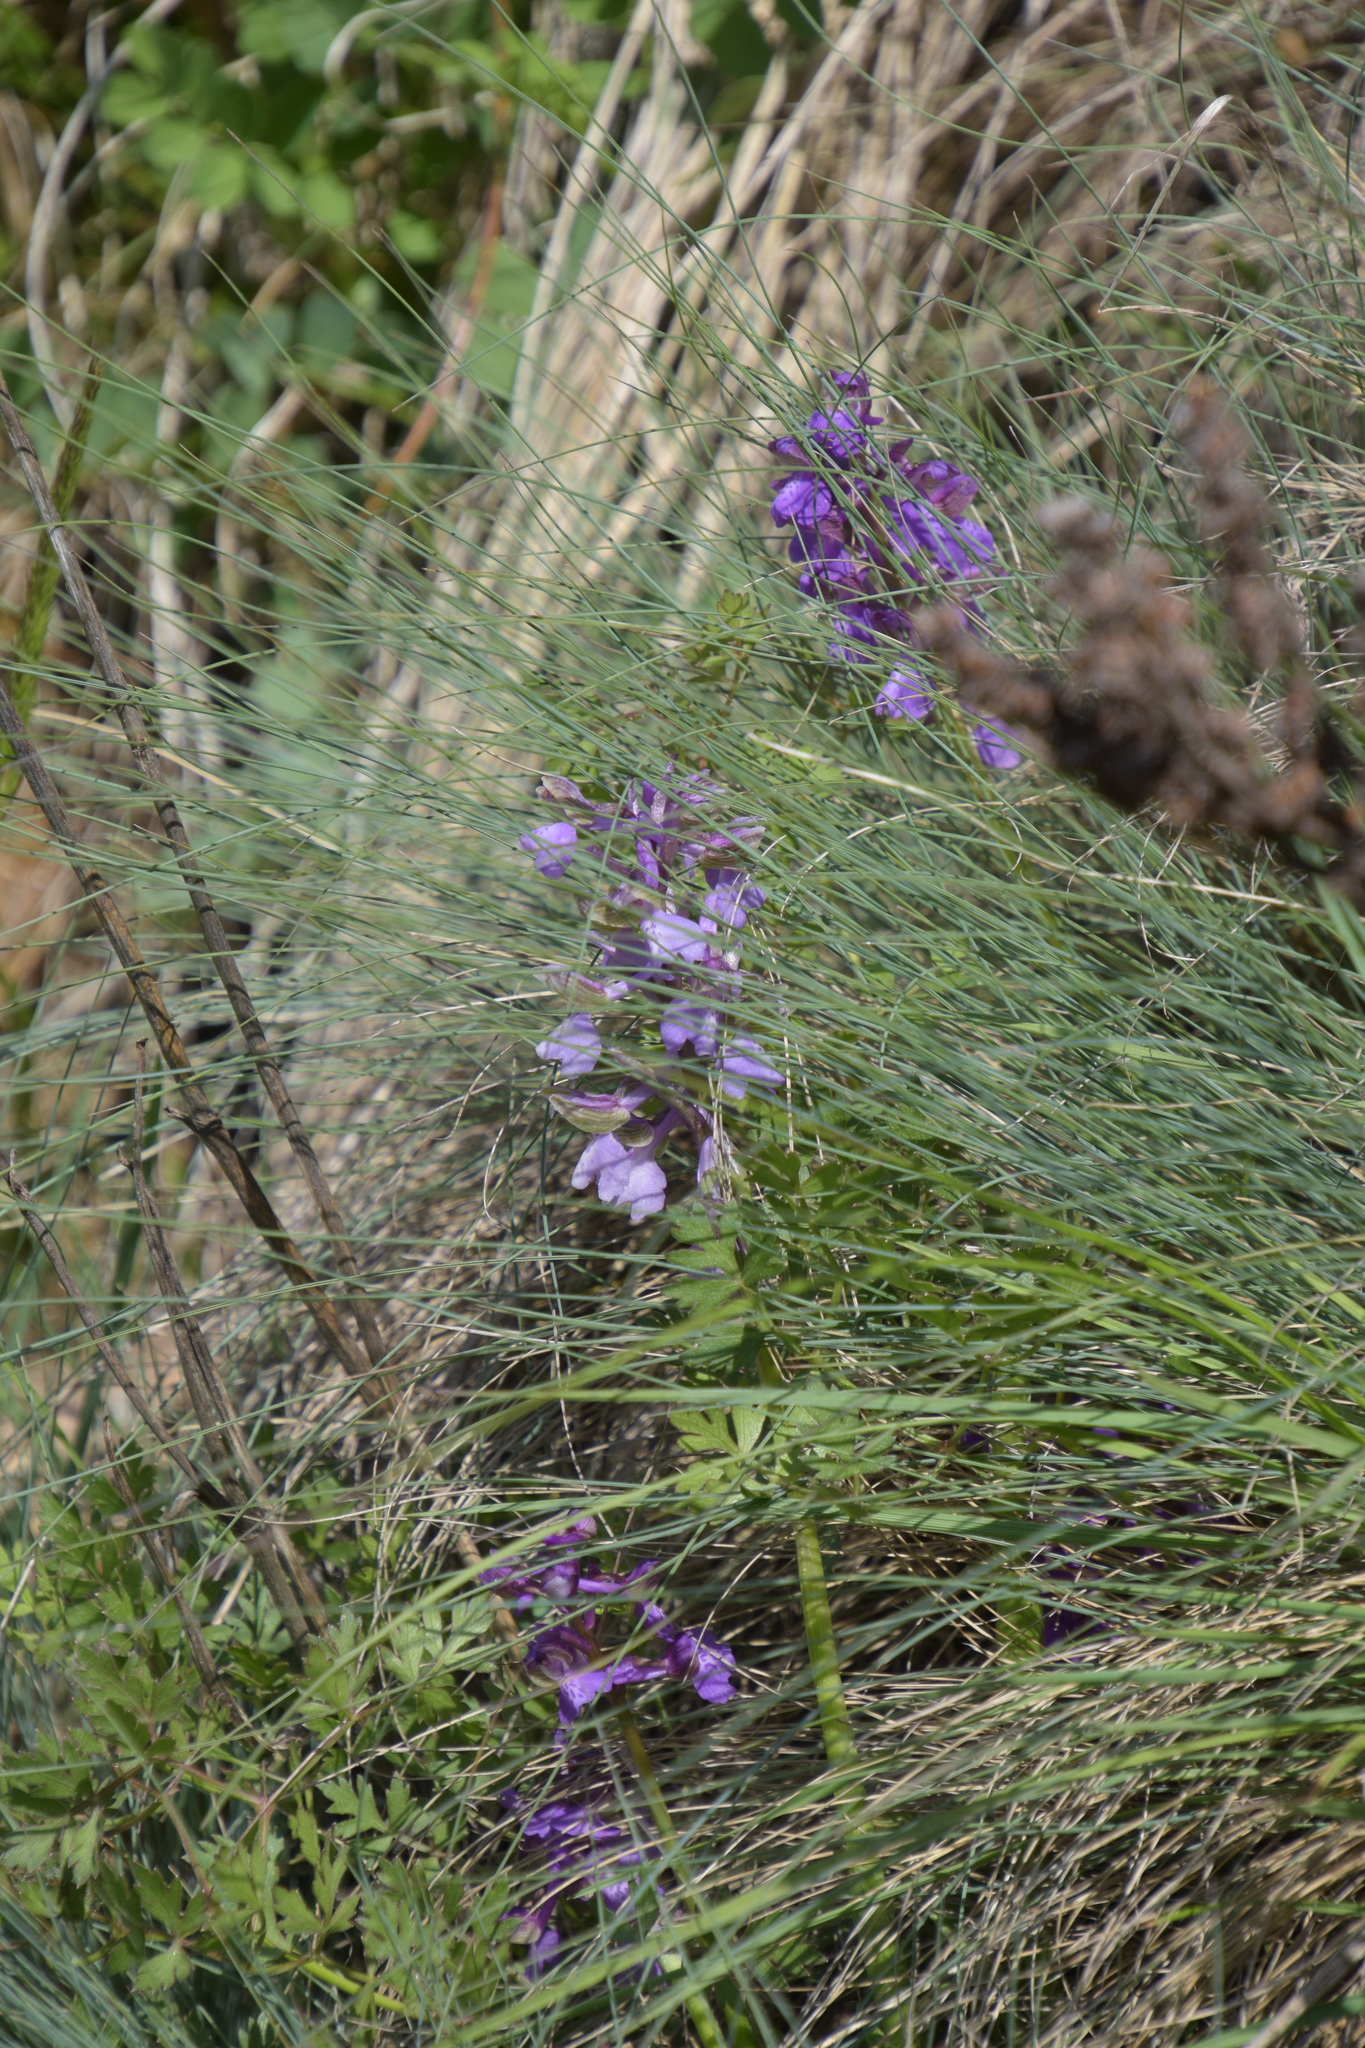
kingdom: Plantae
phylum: Tracheophyta
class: Liliopsida
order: Asparagales
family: Orchidaceae
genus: Anacamptis
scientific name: Anacamptis morio
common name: Green-winged orchid
